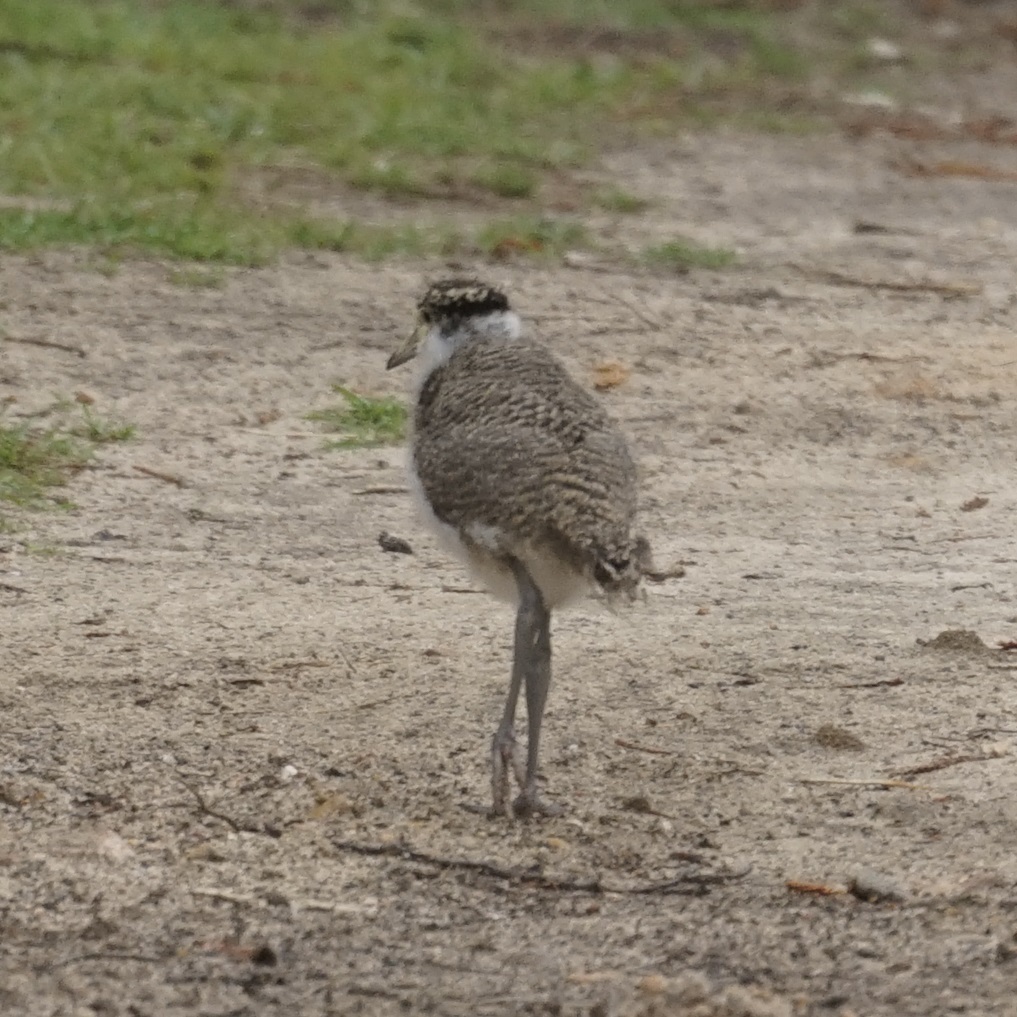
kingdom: Animalia
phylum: Chordata
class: Aves
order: Charadriiformes
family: Charadriidae
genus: Vanellus
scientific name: Vanellus miles
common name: Masked lapwing
